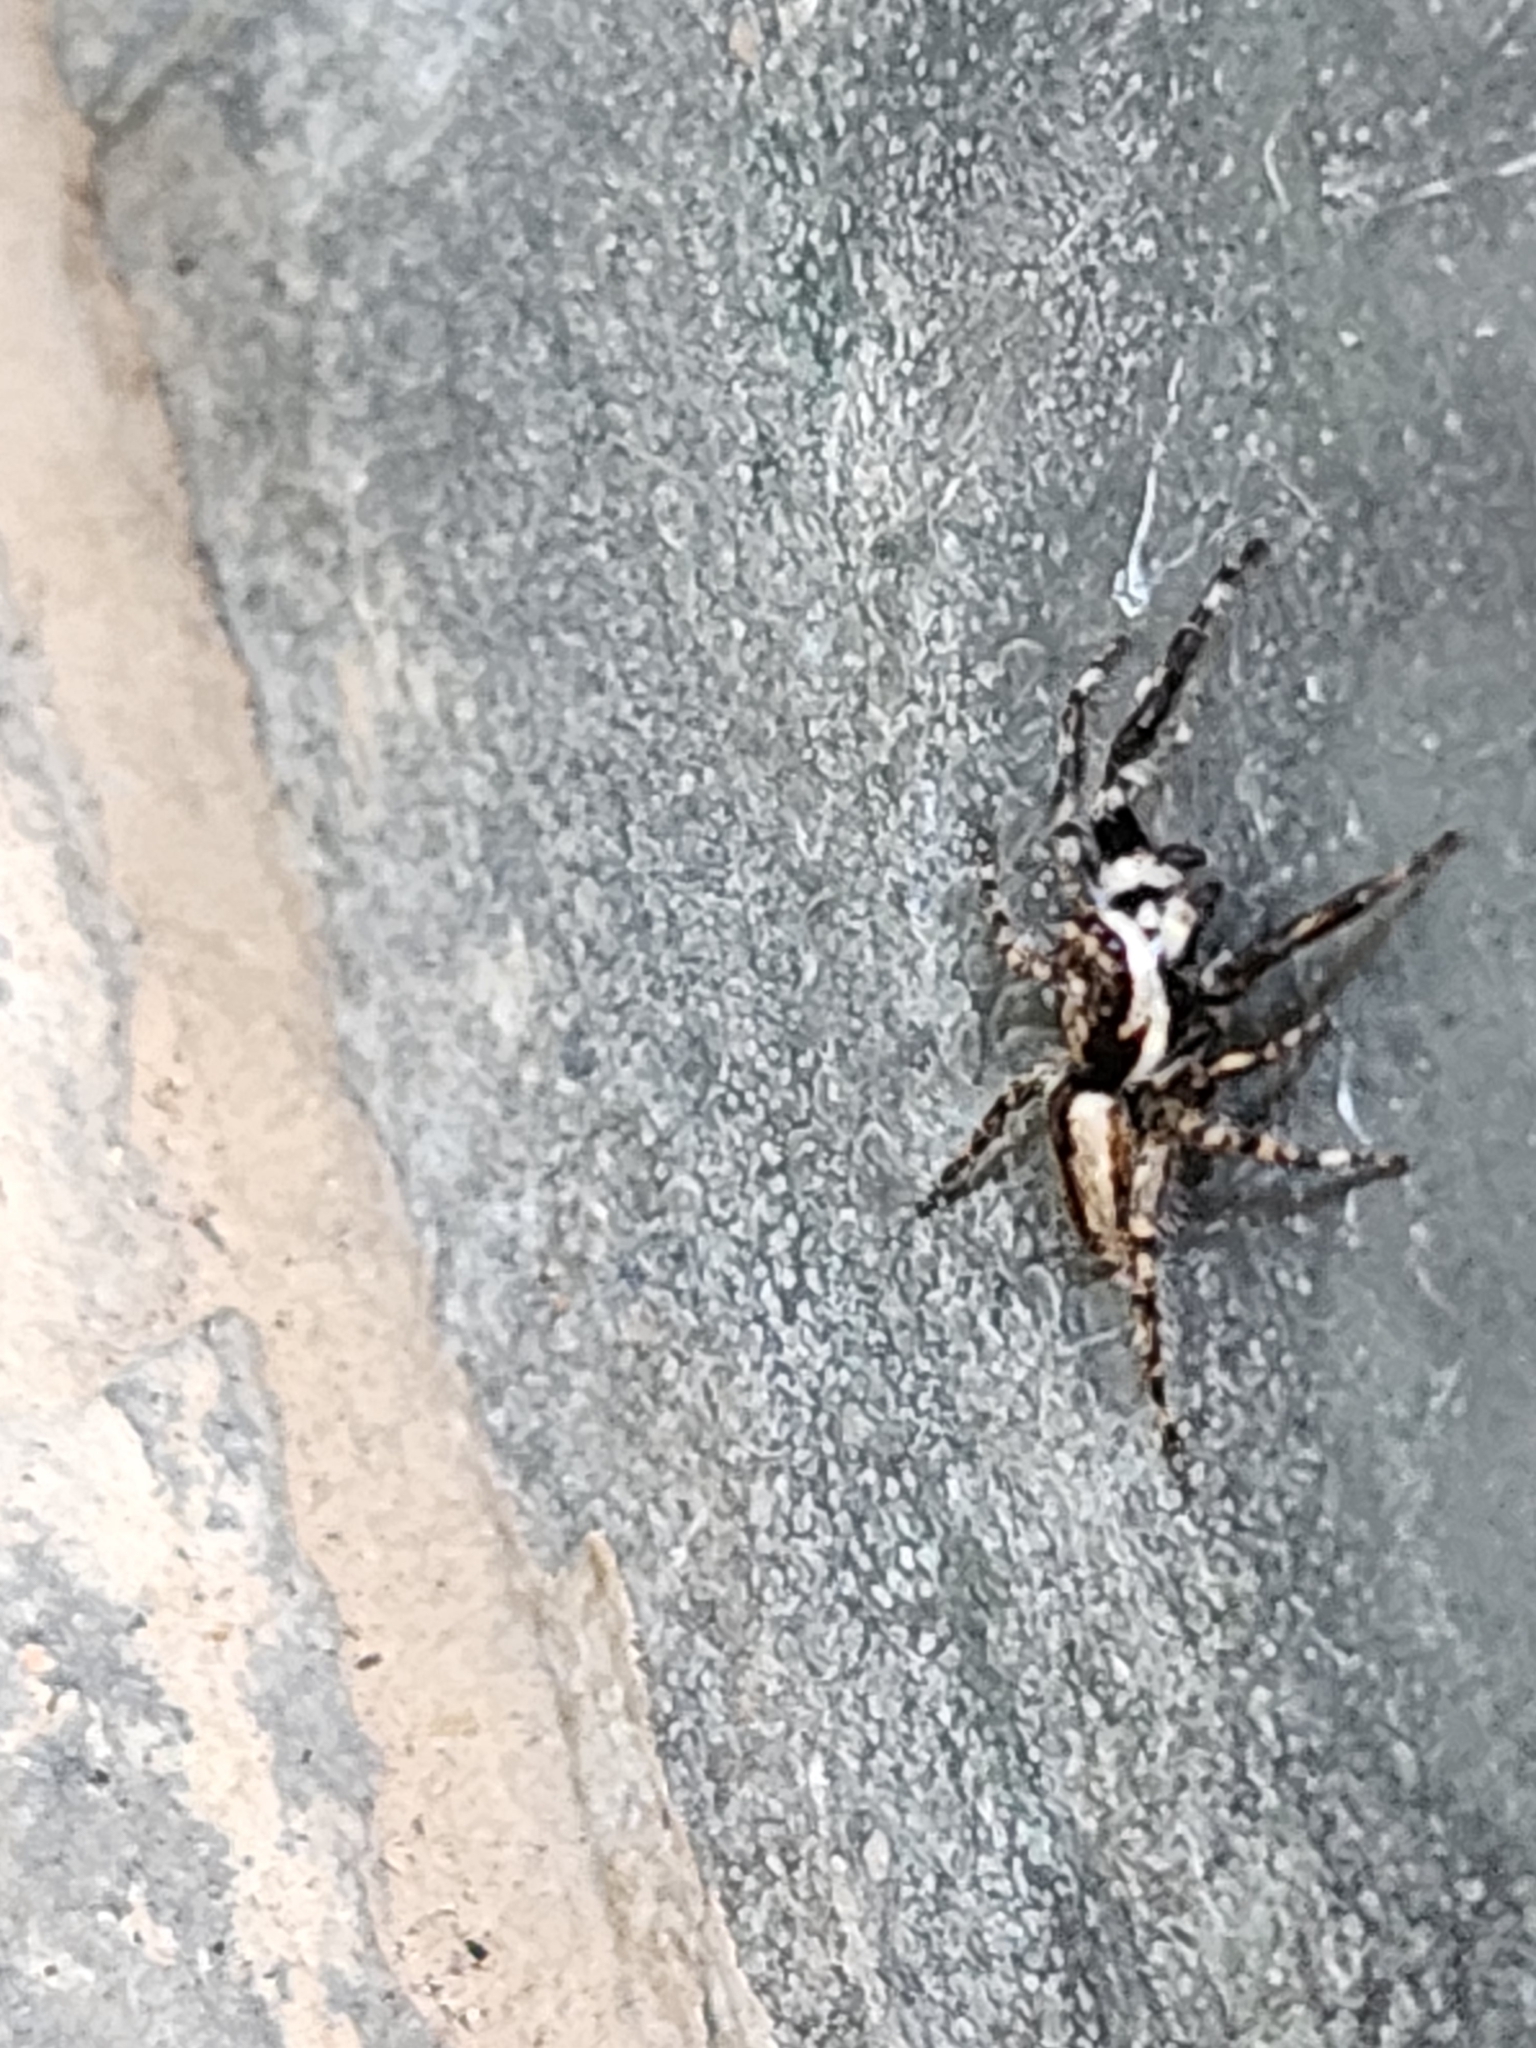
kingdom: Animalia
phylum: Arthropoda
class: Arachnida
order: Araneae
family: Salticidae
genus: Menemerus
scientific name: Menemerus bivittatus
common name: Gray wall jumper
